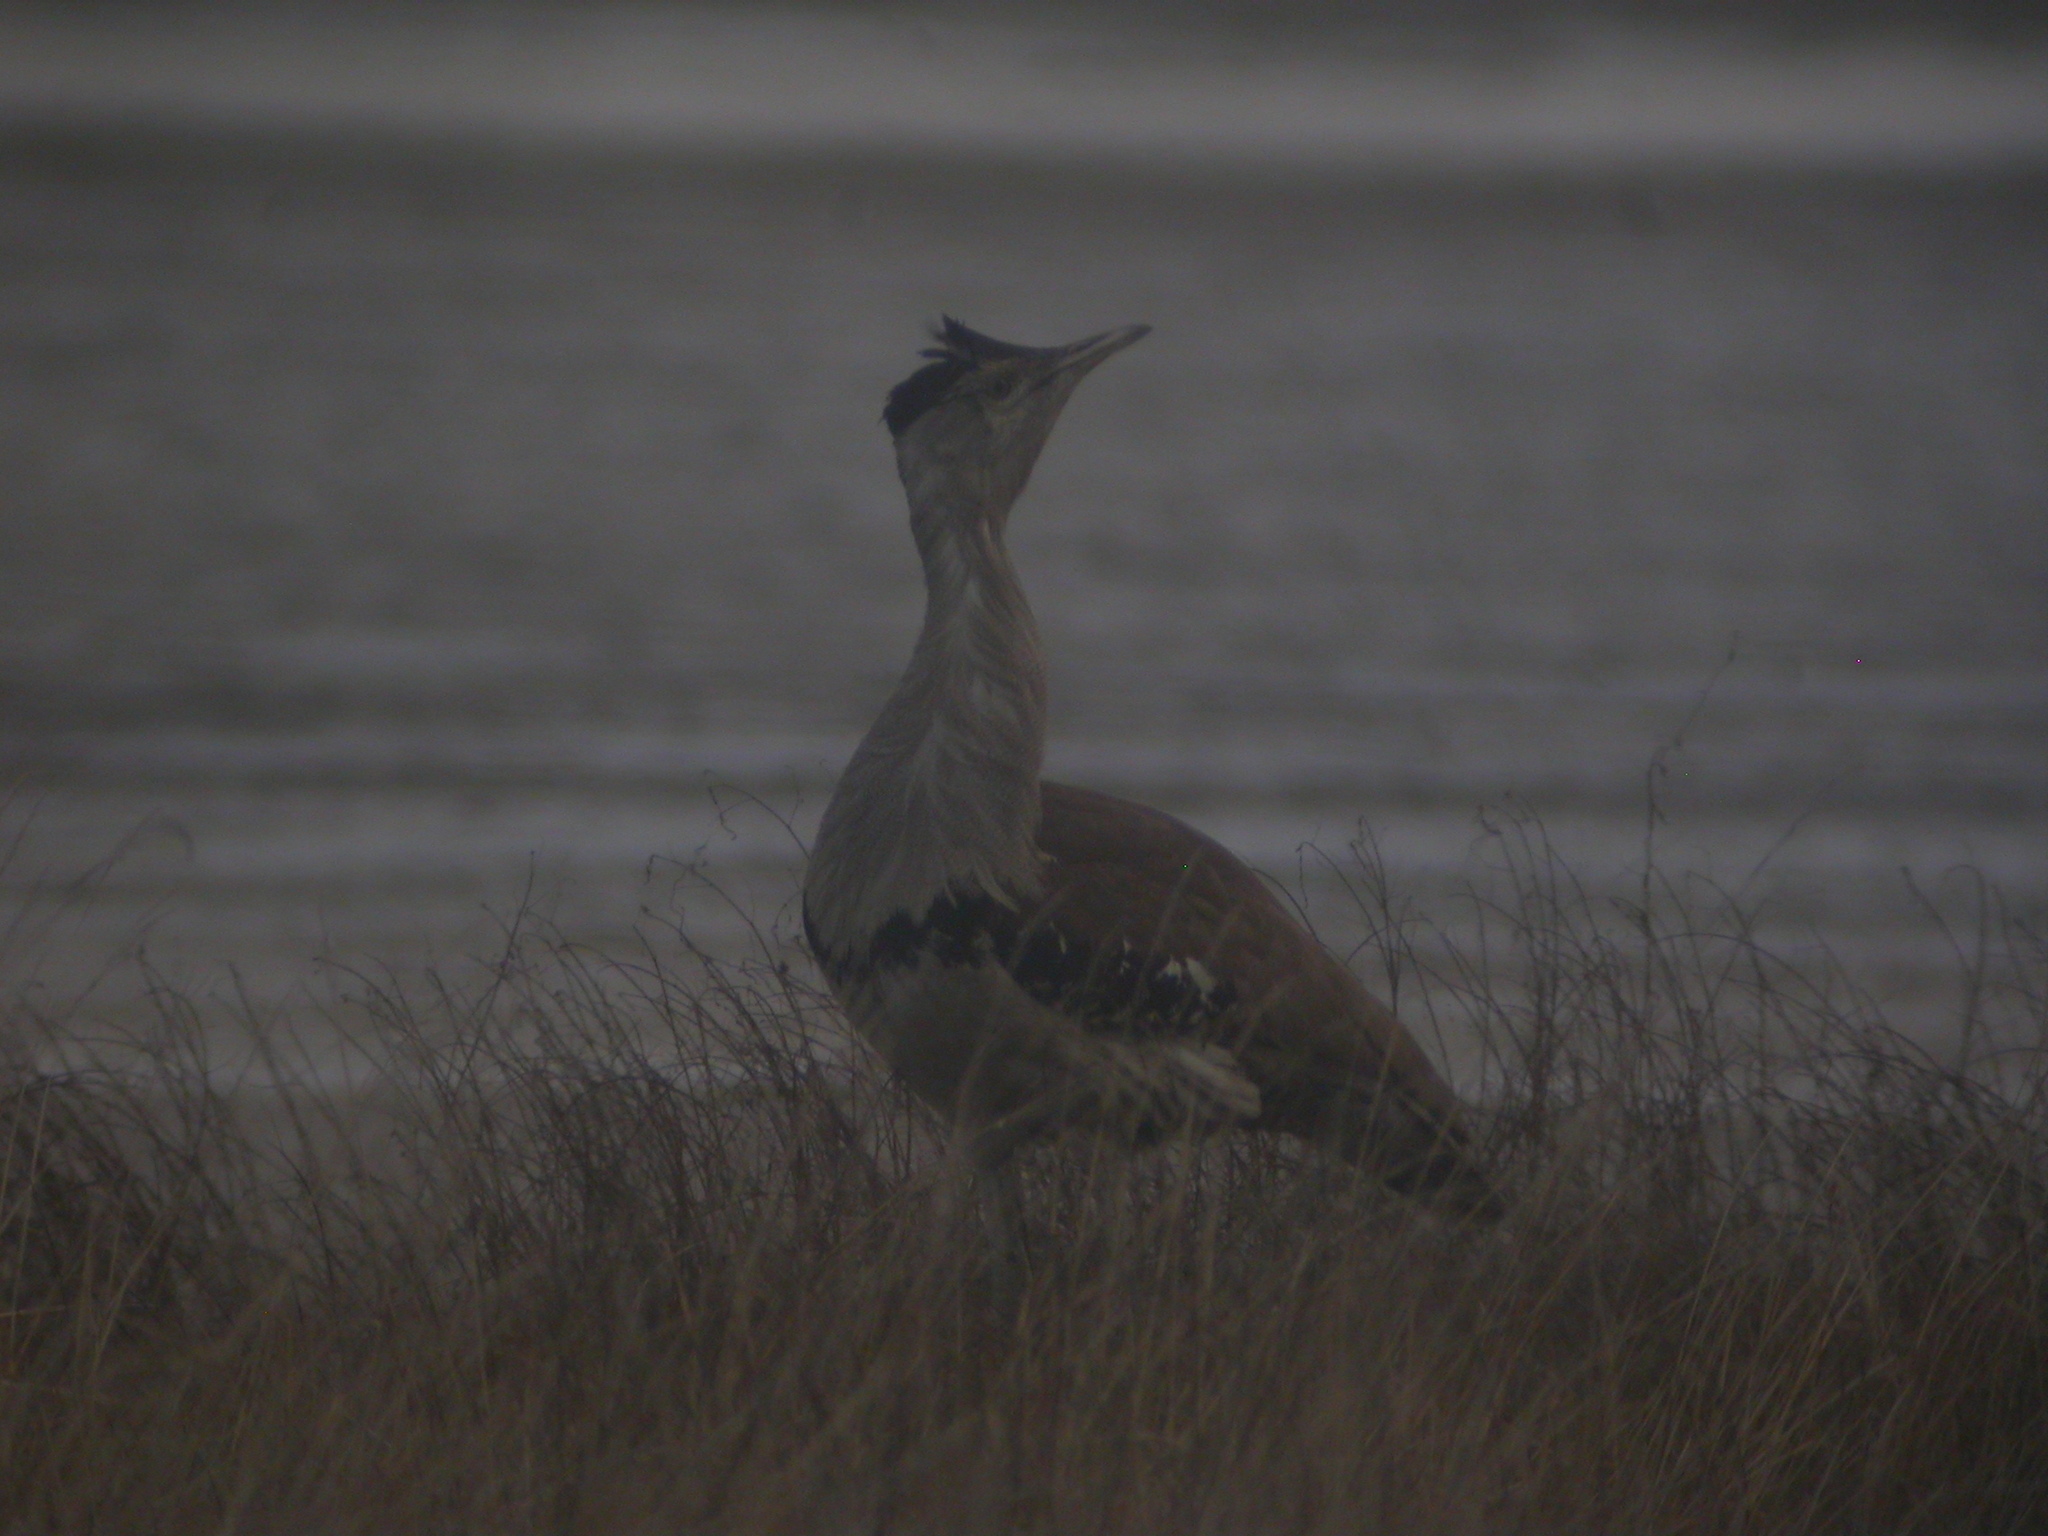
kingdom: Animalia
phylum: Chordata
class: Aves
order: Otidiformes
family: Otididae
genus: Ardeotis
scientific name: Ardeotis australis
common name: Australian bustard
